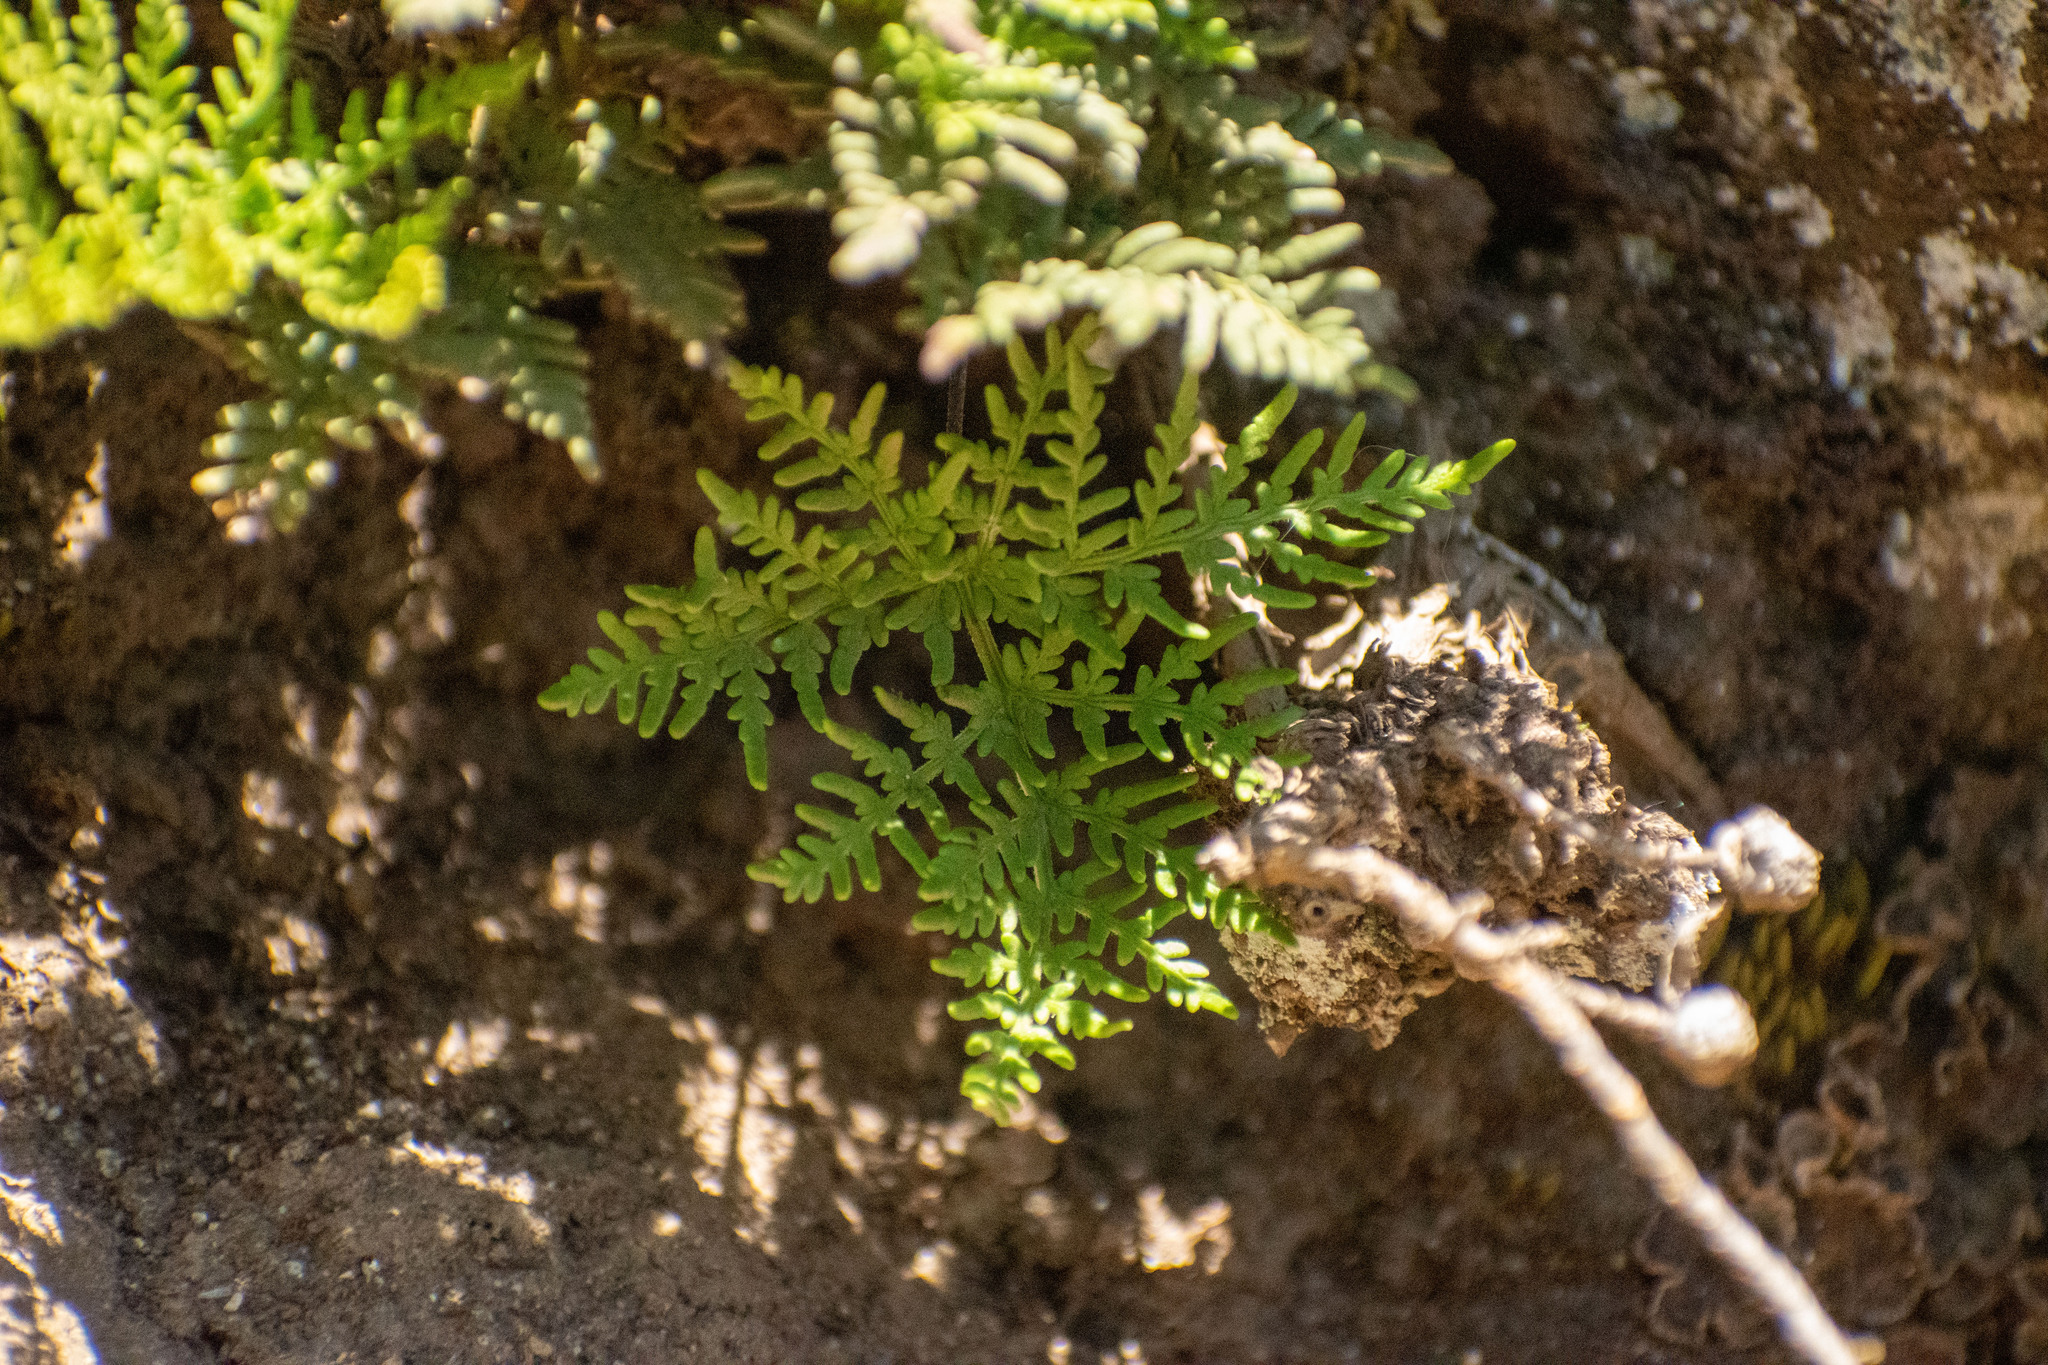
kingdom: Plantae
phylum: Tracheophyta
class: Polypodiopsida
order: Polypodiales
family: Pteridaceae
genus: Cheilanthes
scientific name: Cheilanthes glauca
